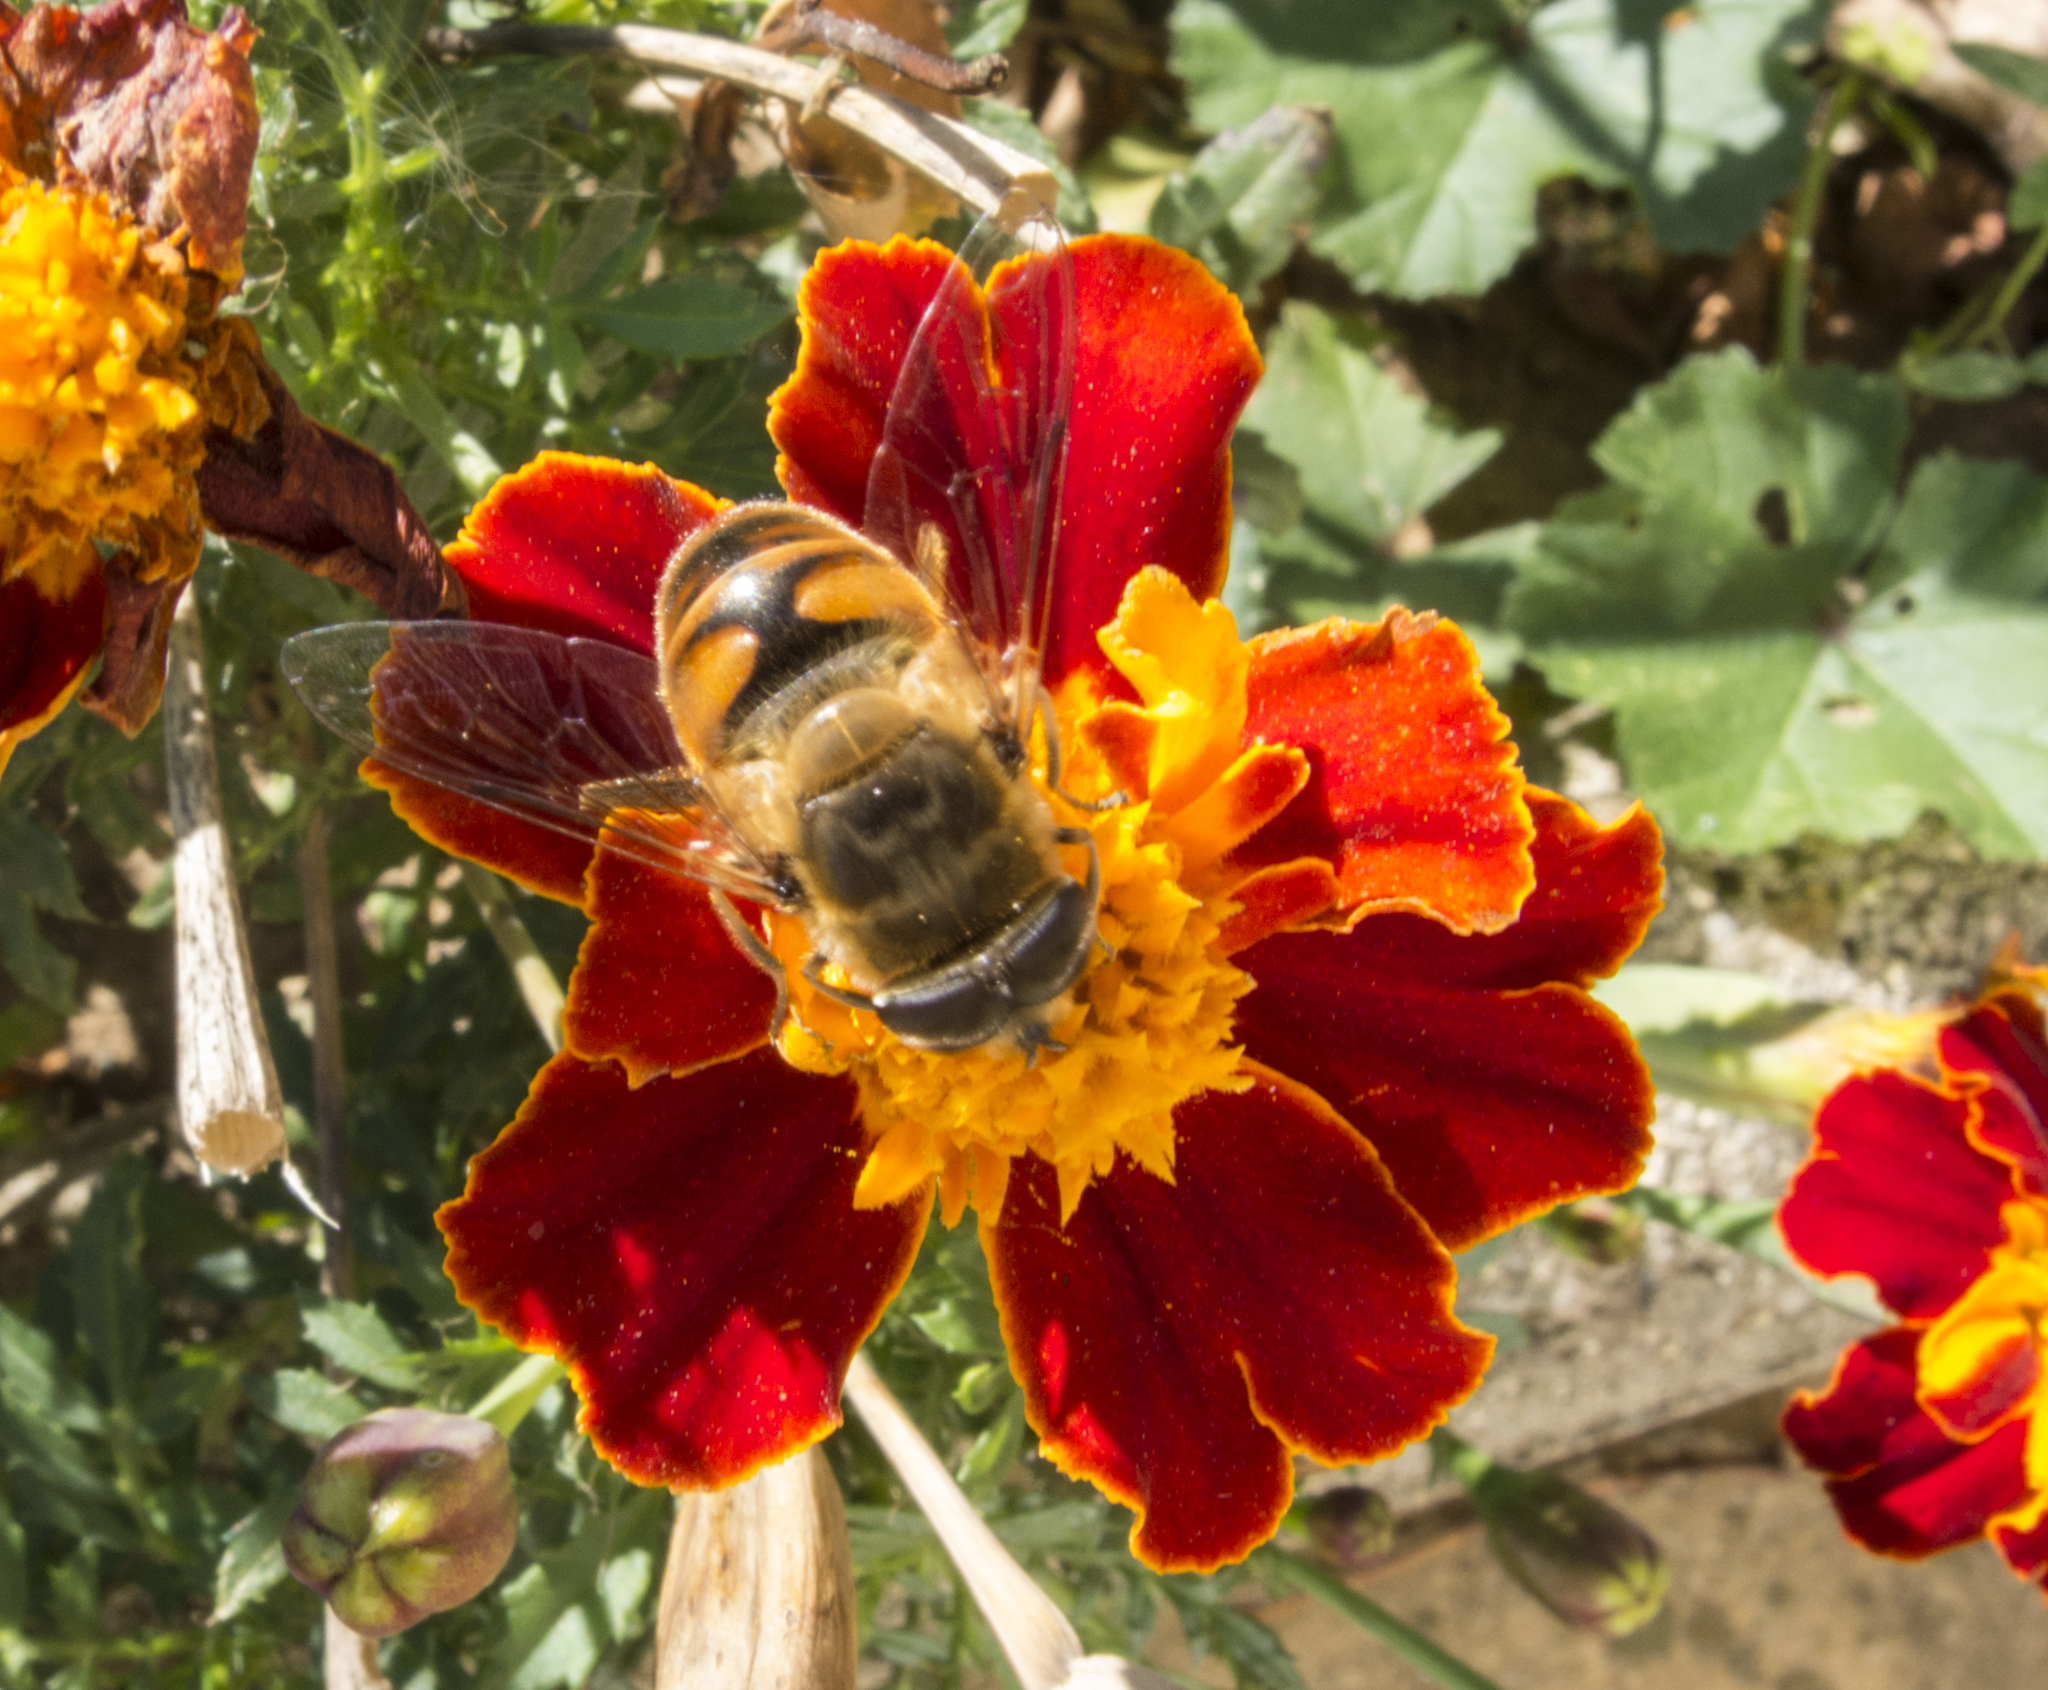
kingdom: Animalia
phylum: Arthropoda
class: Insecta
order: Diptera
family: Syrphidae
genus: Eristalis
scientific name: Eristalis tenax
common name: Drone fly
